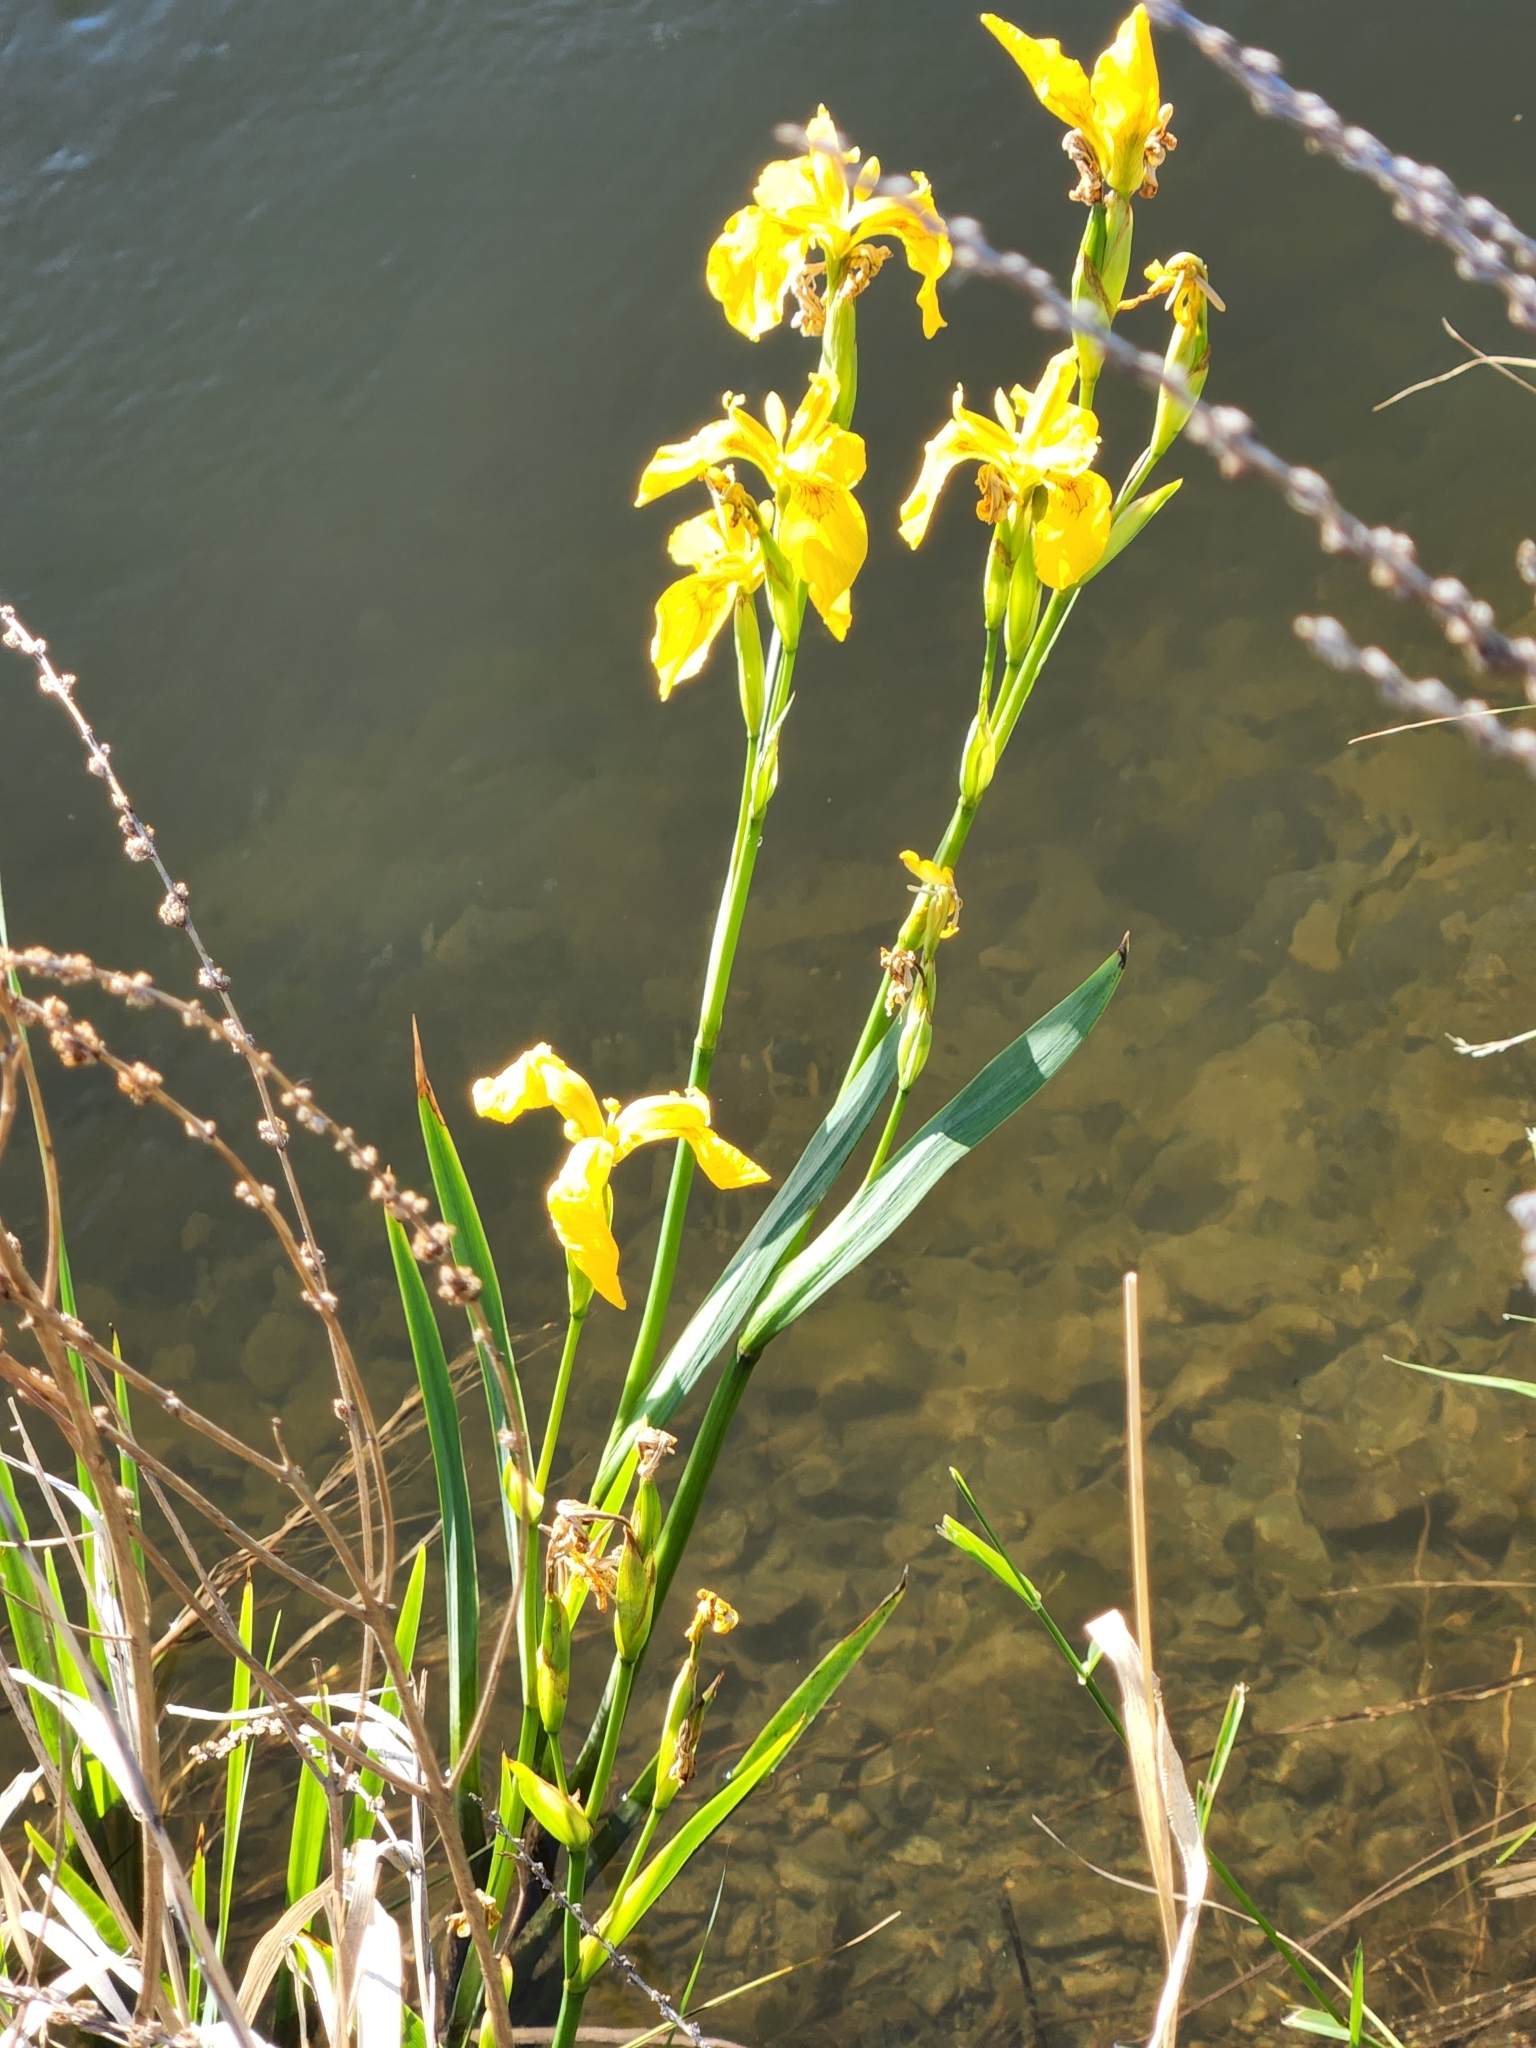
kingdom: Plantae
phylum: Tracheophyta
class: Liliopsida
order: Asparagales
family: Iridaceae
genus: Iris
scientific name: Iris pseudacorus
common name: Yellow flag
